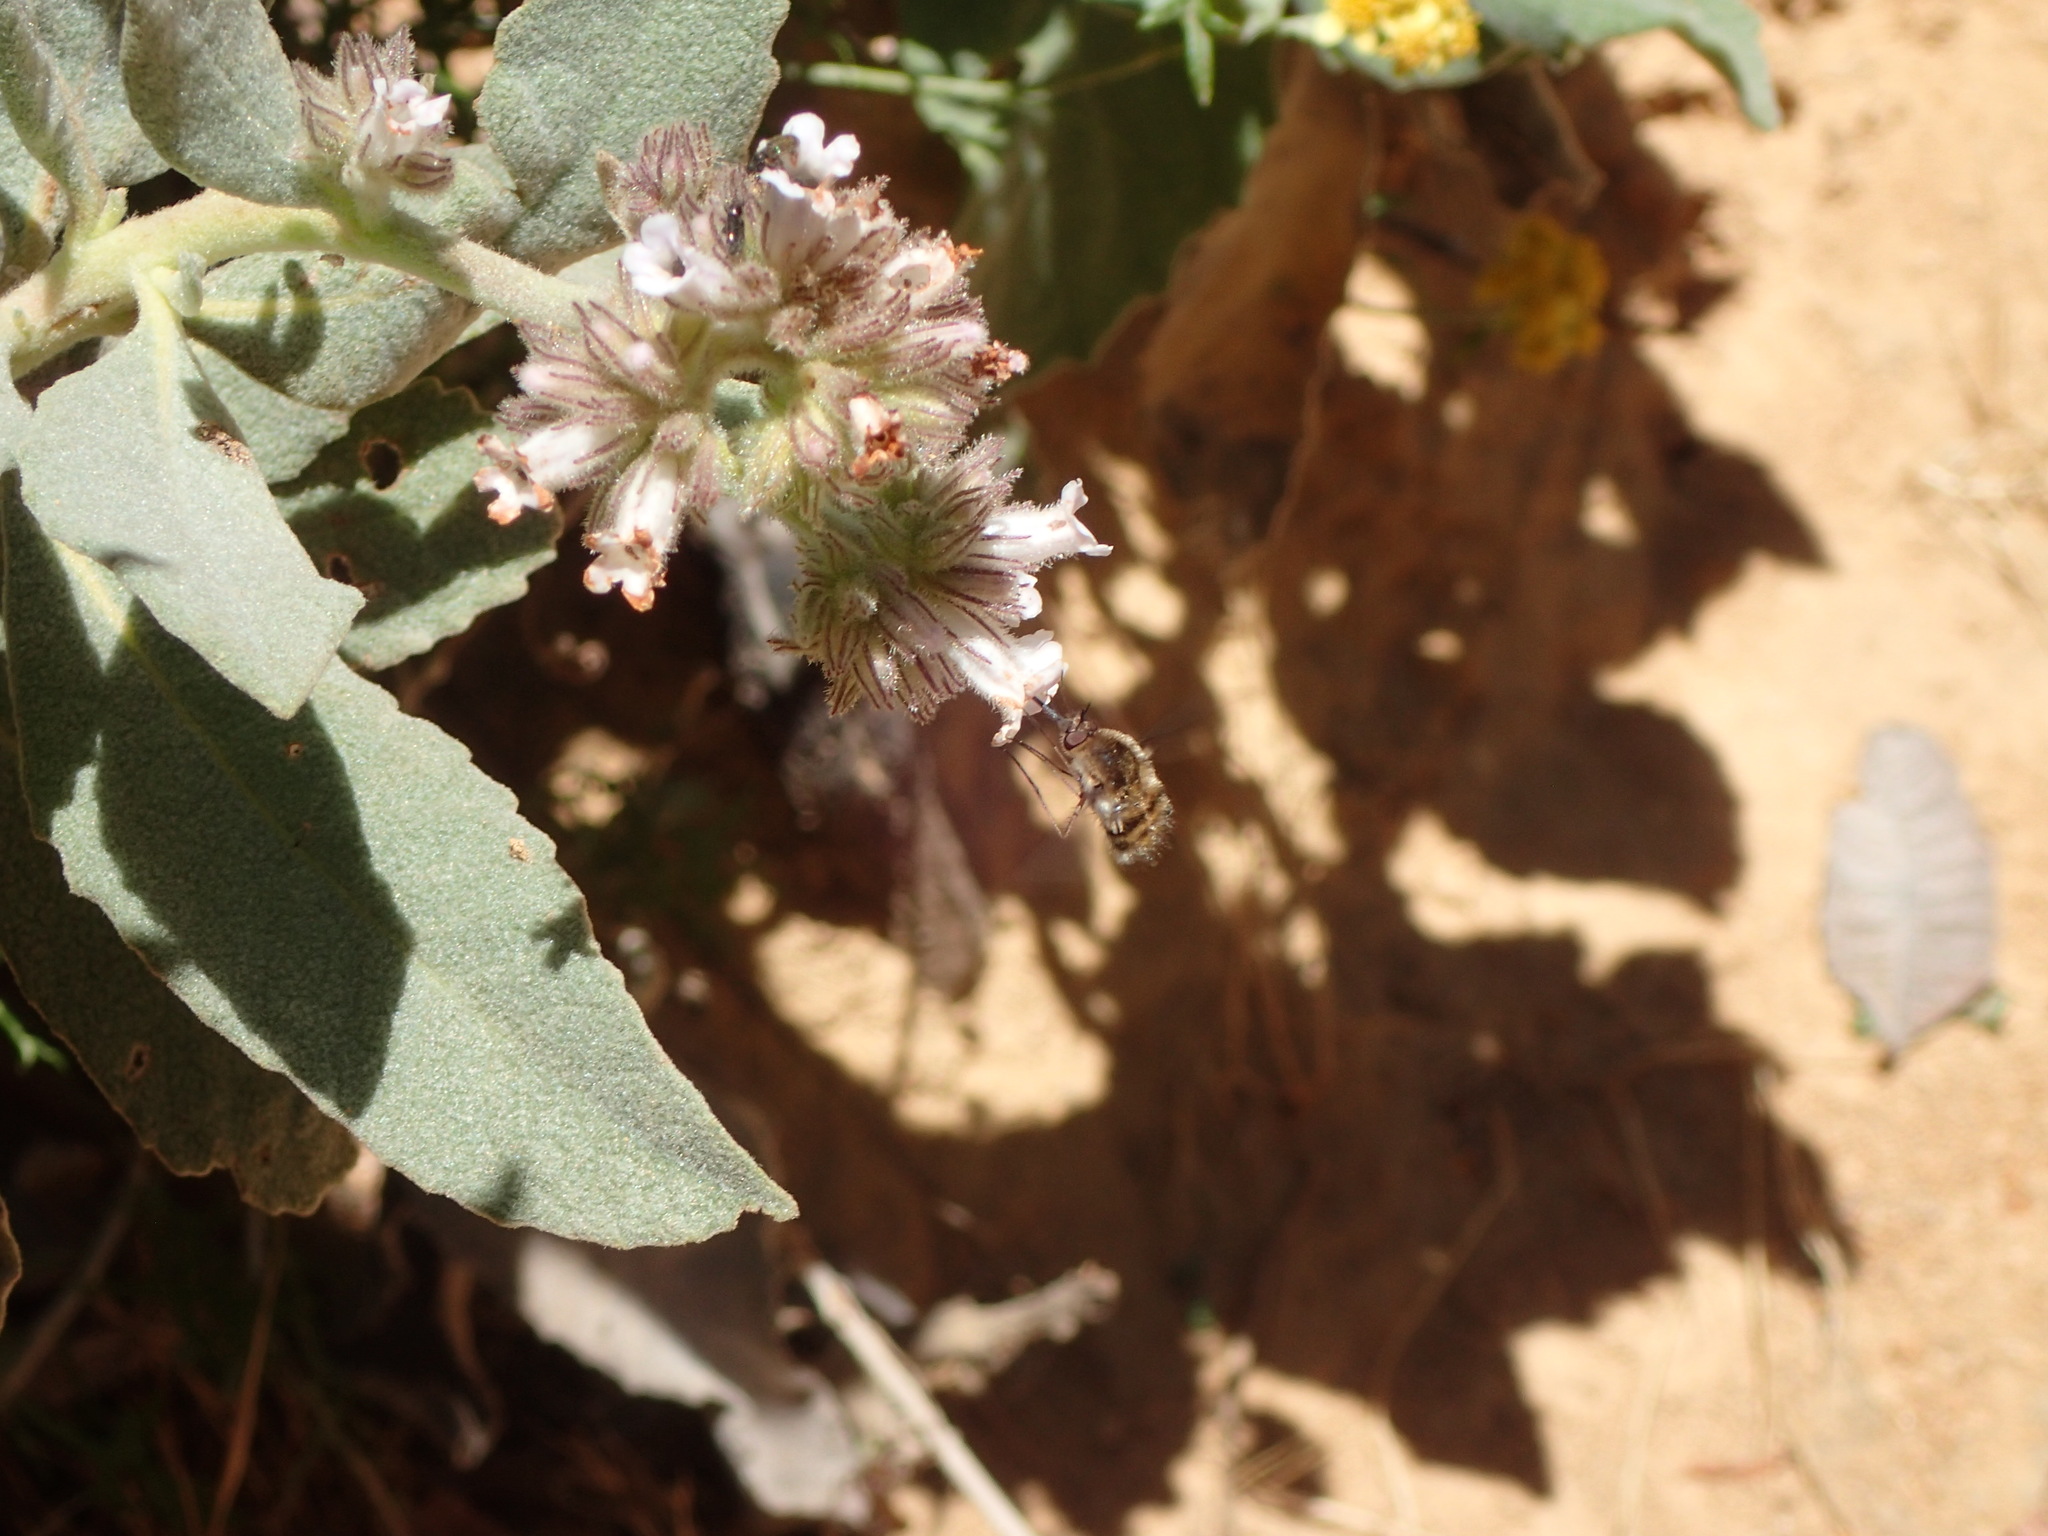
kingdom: Plantae
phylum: Tracheophyta
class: Magnoliopsida
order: Boraginales
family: Namaceae
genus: Eriodictyon
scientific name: Eriodictyon traskiae
